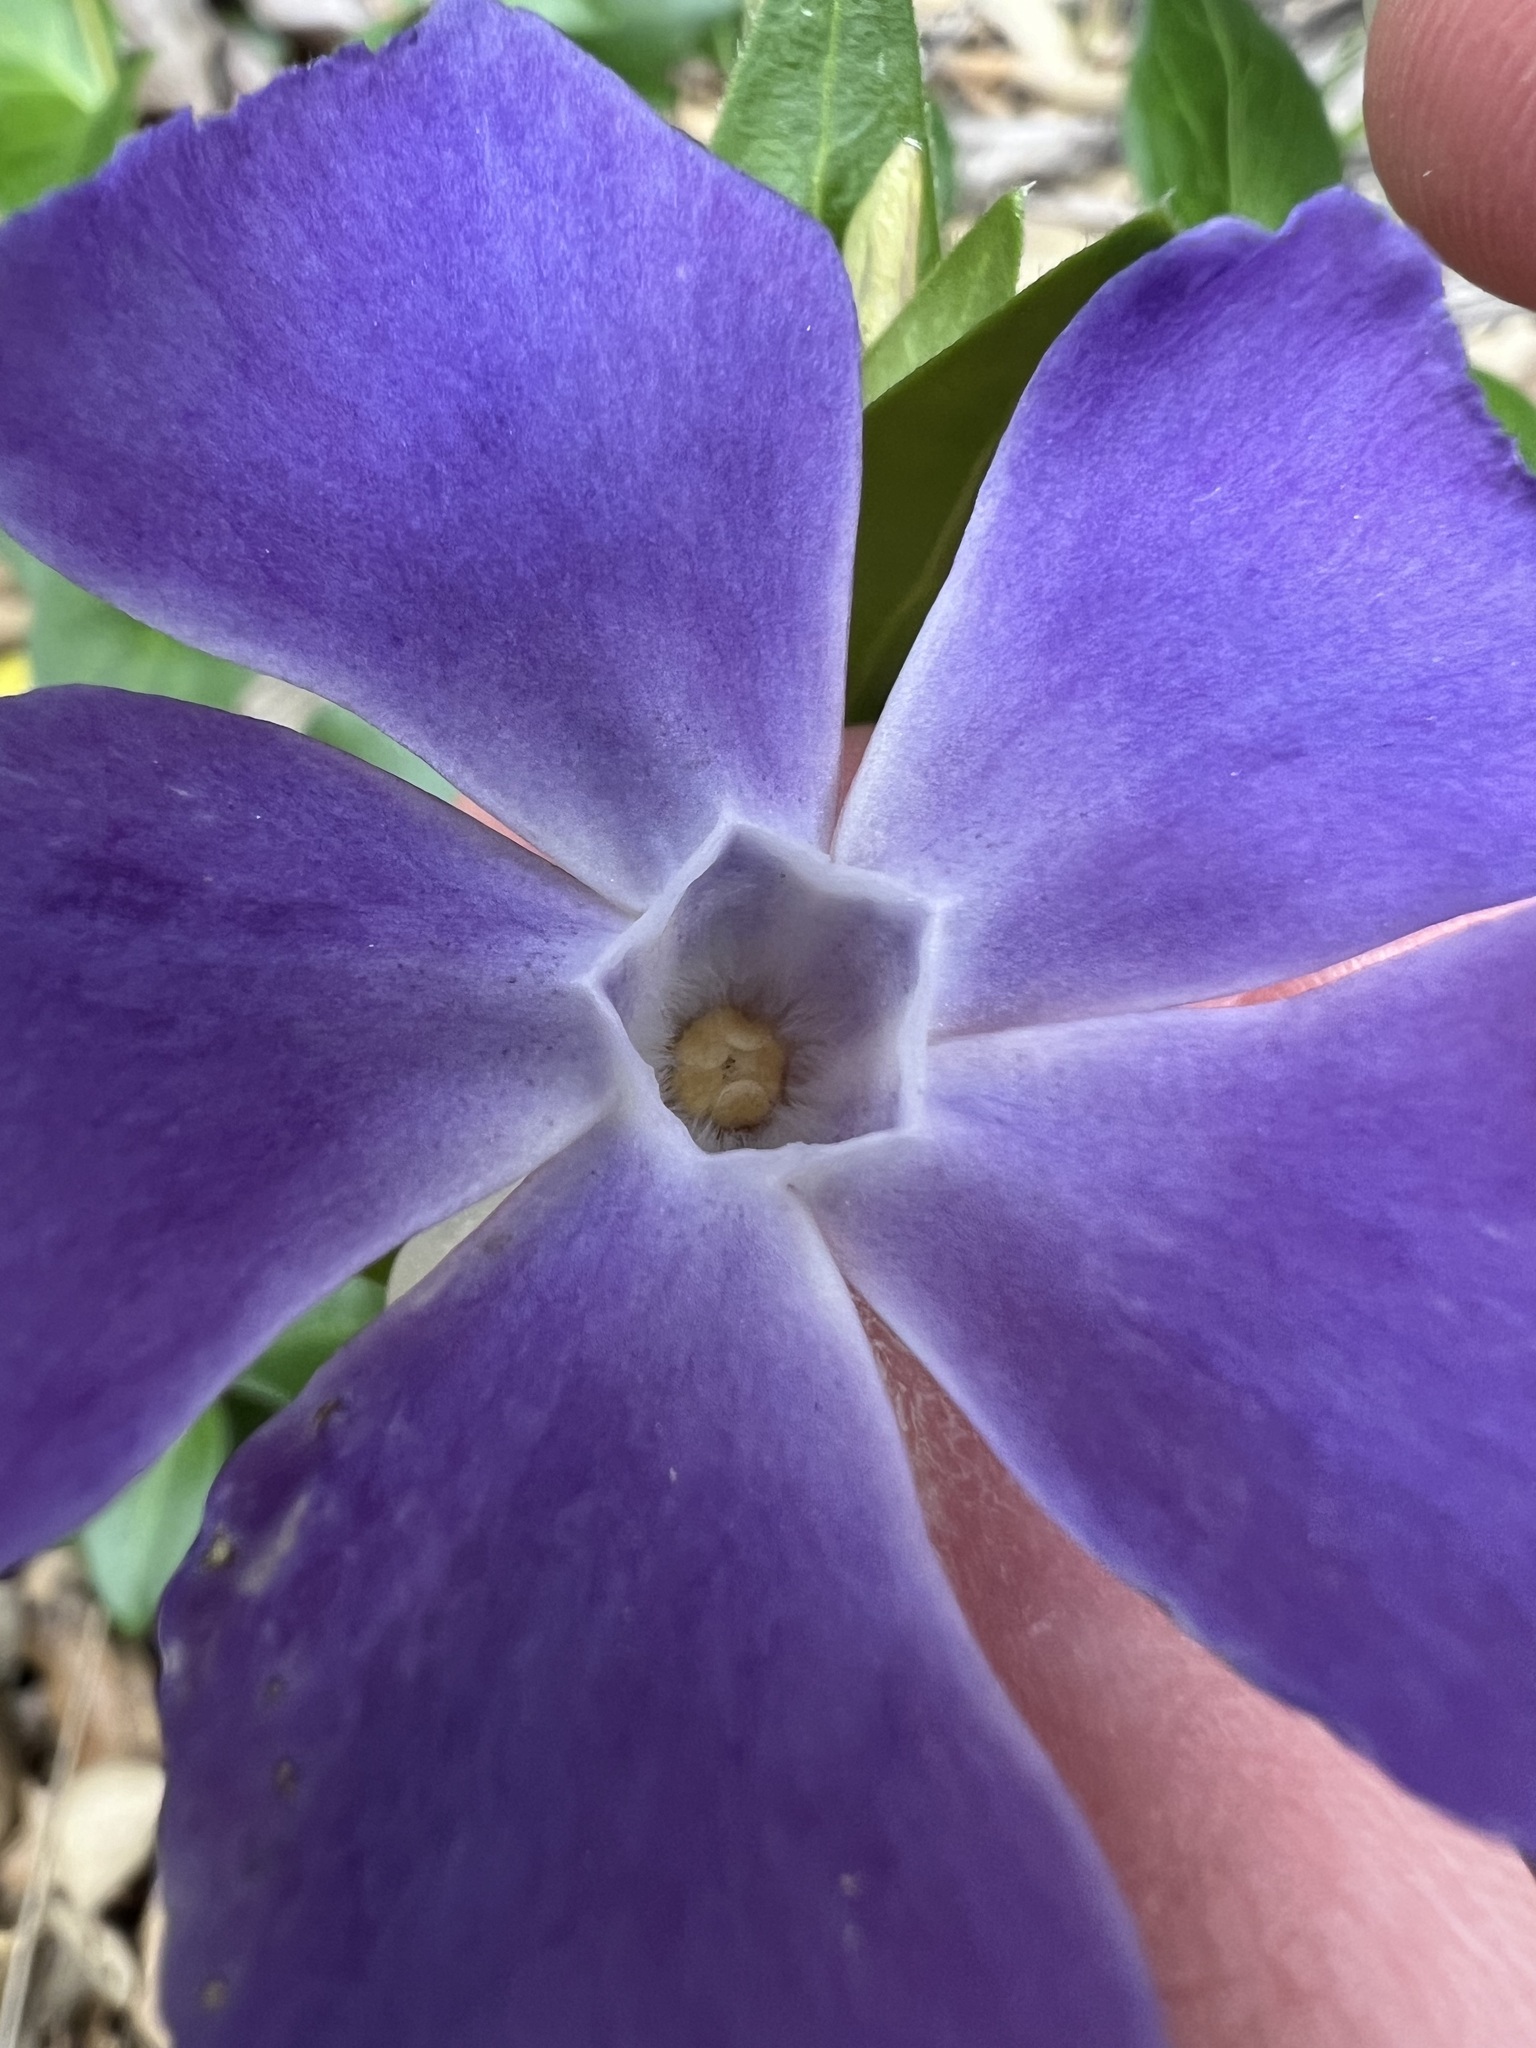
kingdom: Plantae
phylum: Tracheophyta
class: Magnoliopsida
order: Gentianales
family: Apocynaceae
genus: Vinca
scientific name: Vinca major
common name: Greater periwinkle
